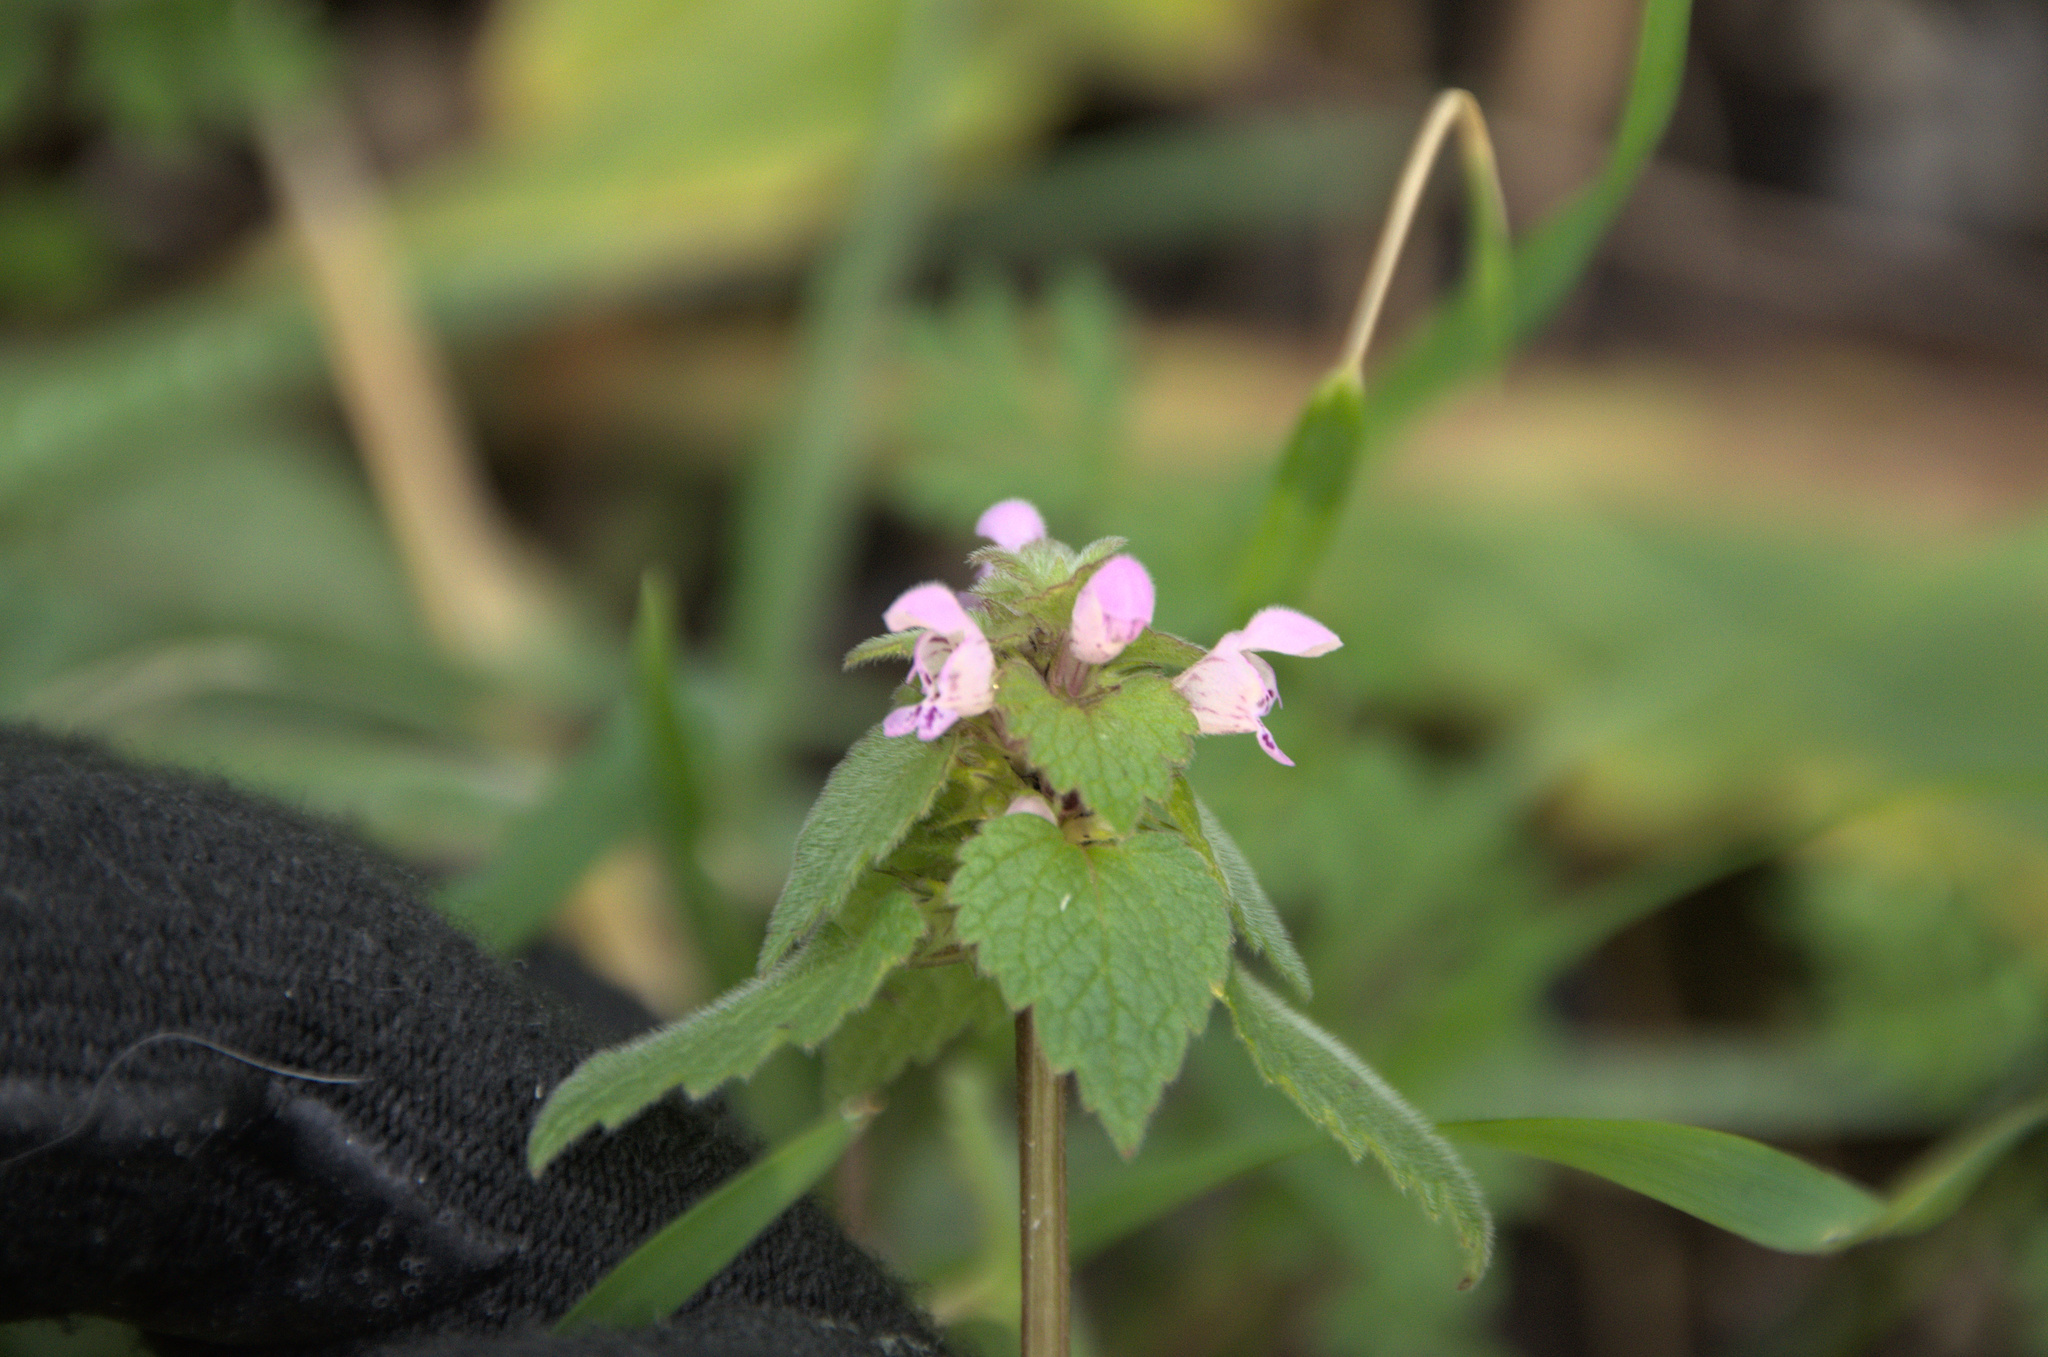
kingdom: Plantae
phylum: Tracheophyta
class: Magnoliopsida
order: Lamiales
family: Lamiaceae
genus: Lamium
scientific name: Lamium purpureum
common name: Red dead-nettle
